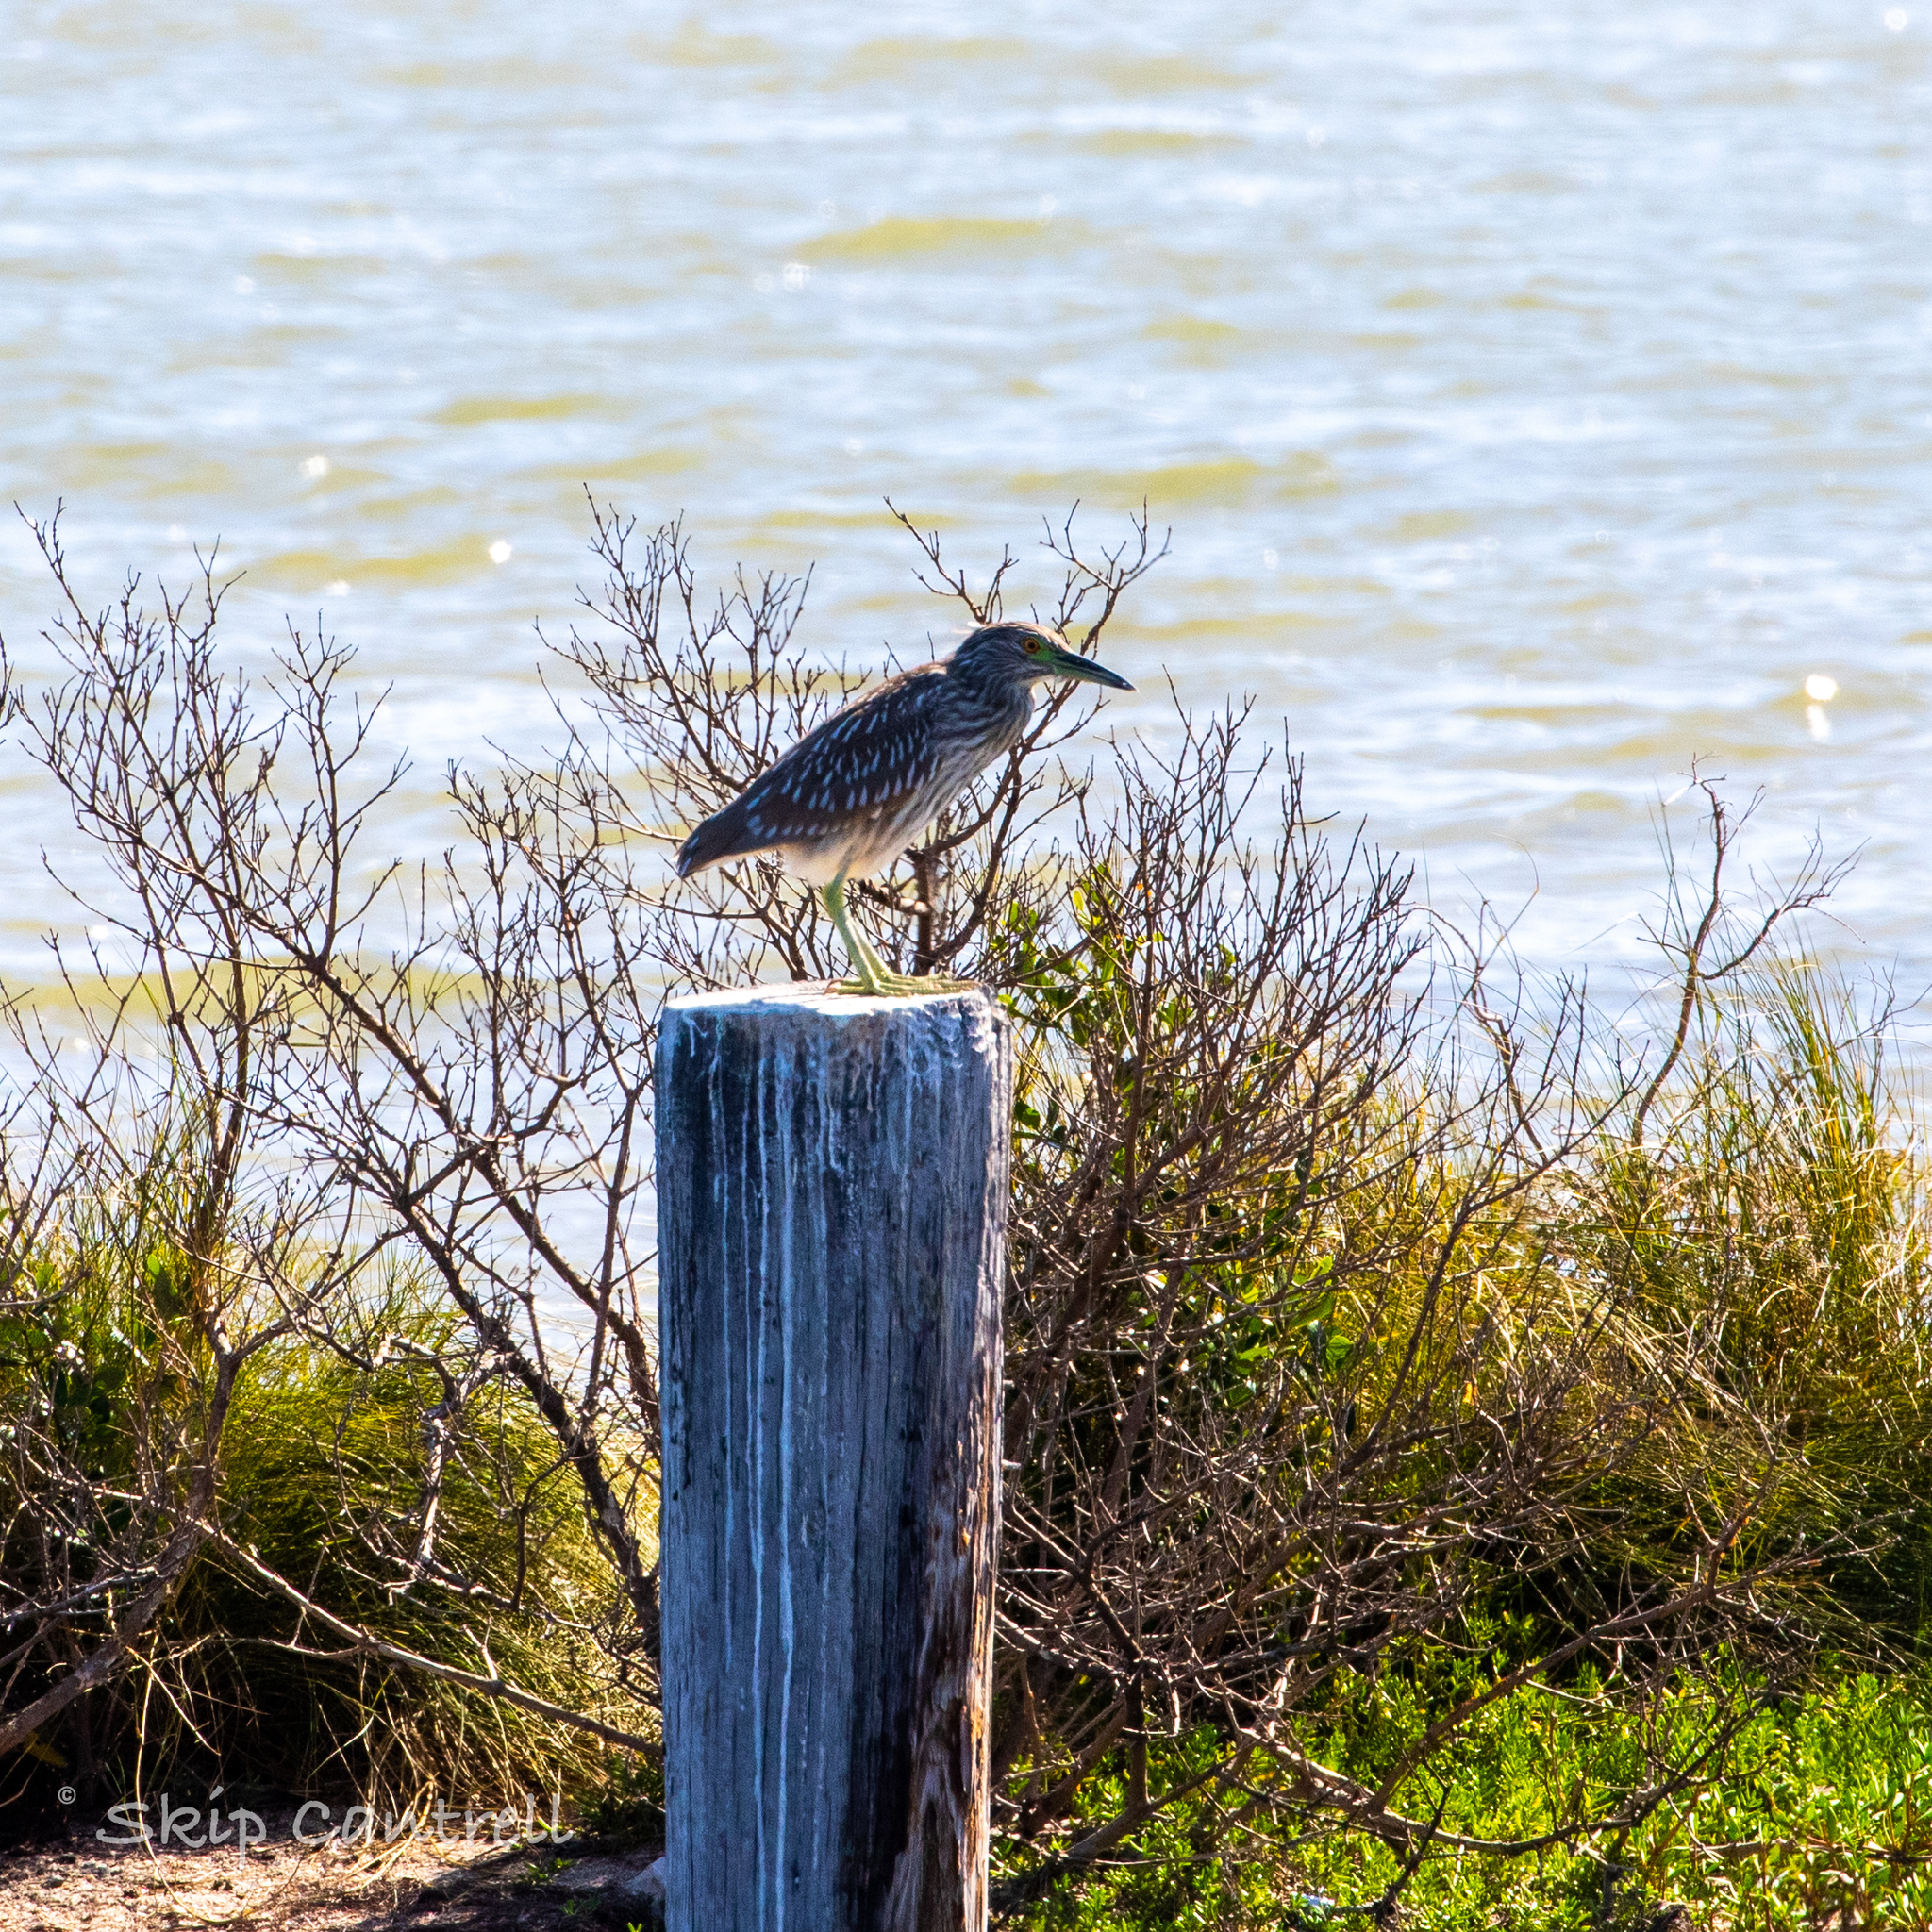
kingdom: Animalia
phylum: Chordata
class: Aves
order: Pelecaniformes
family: Ardeidae
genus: Nycticorax
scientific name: Nycticorax nycticorax
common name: Black-crowned night heron
